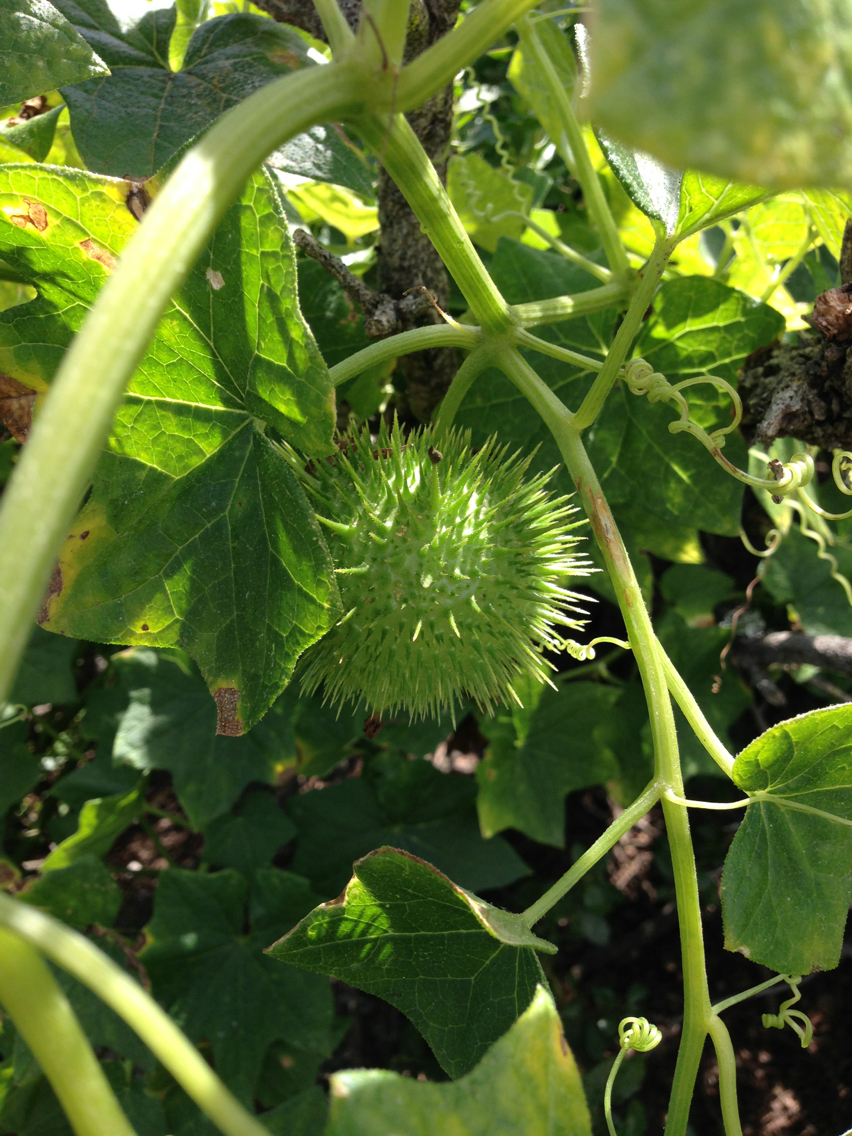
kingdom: Plantae
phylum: Tracheophyta
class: Magnoliopsida
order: Cucurbitales
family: Cucurbitaceae
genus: Marah
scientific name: Marah fabacea
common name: California manroot
